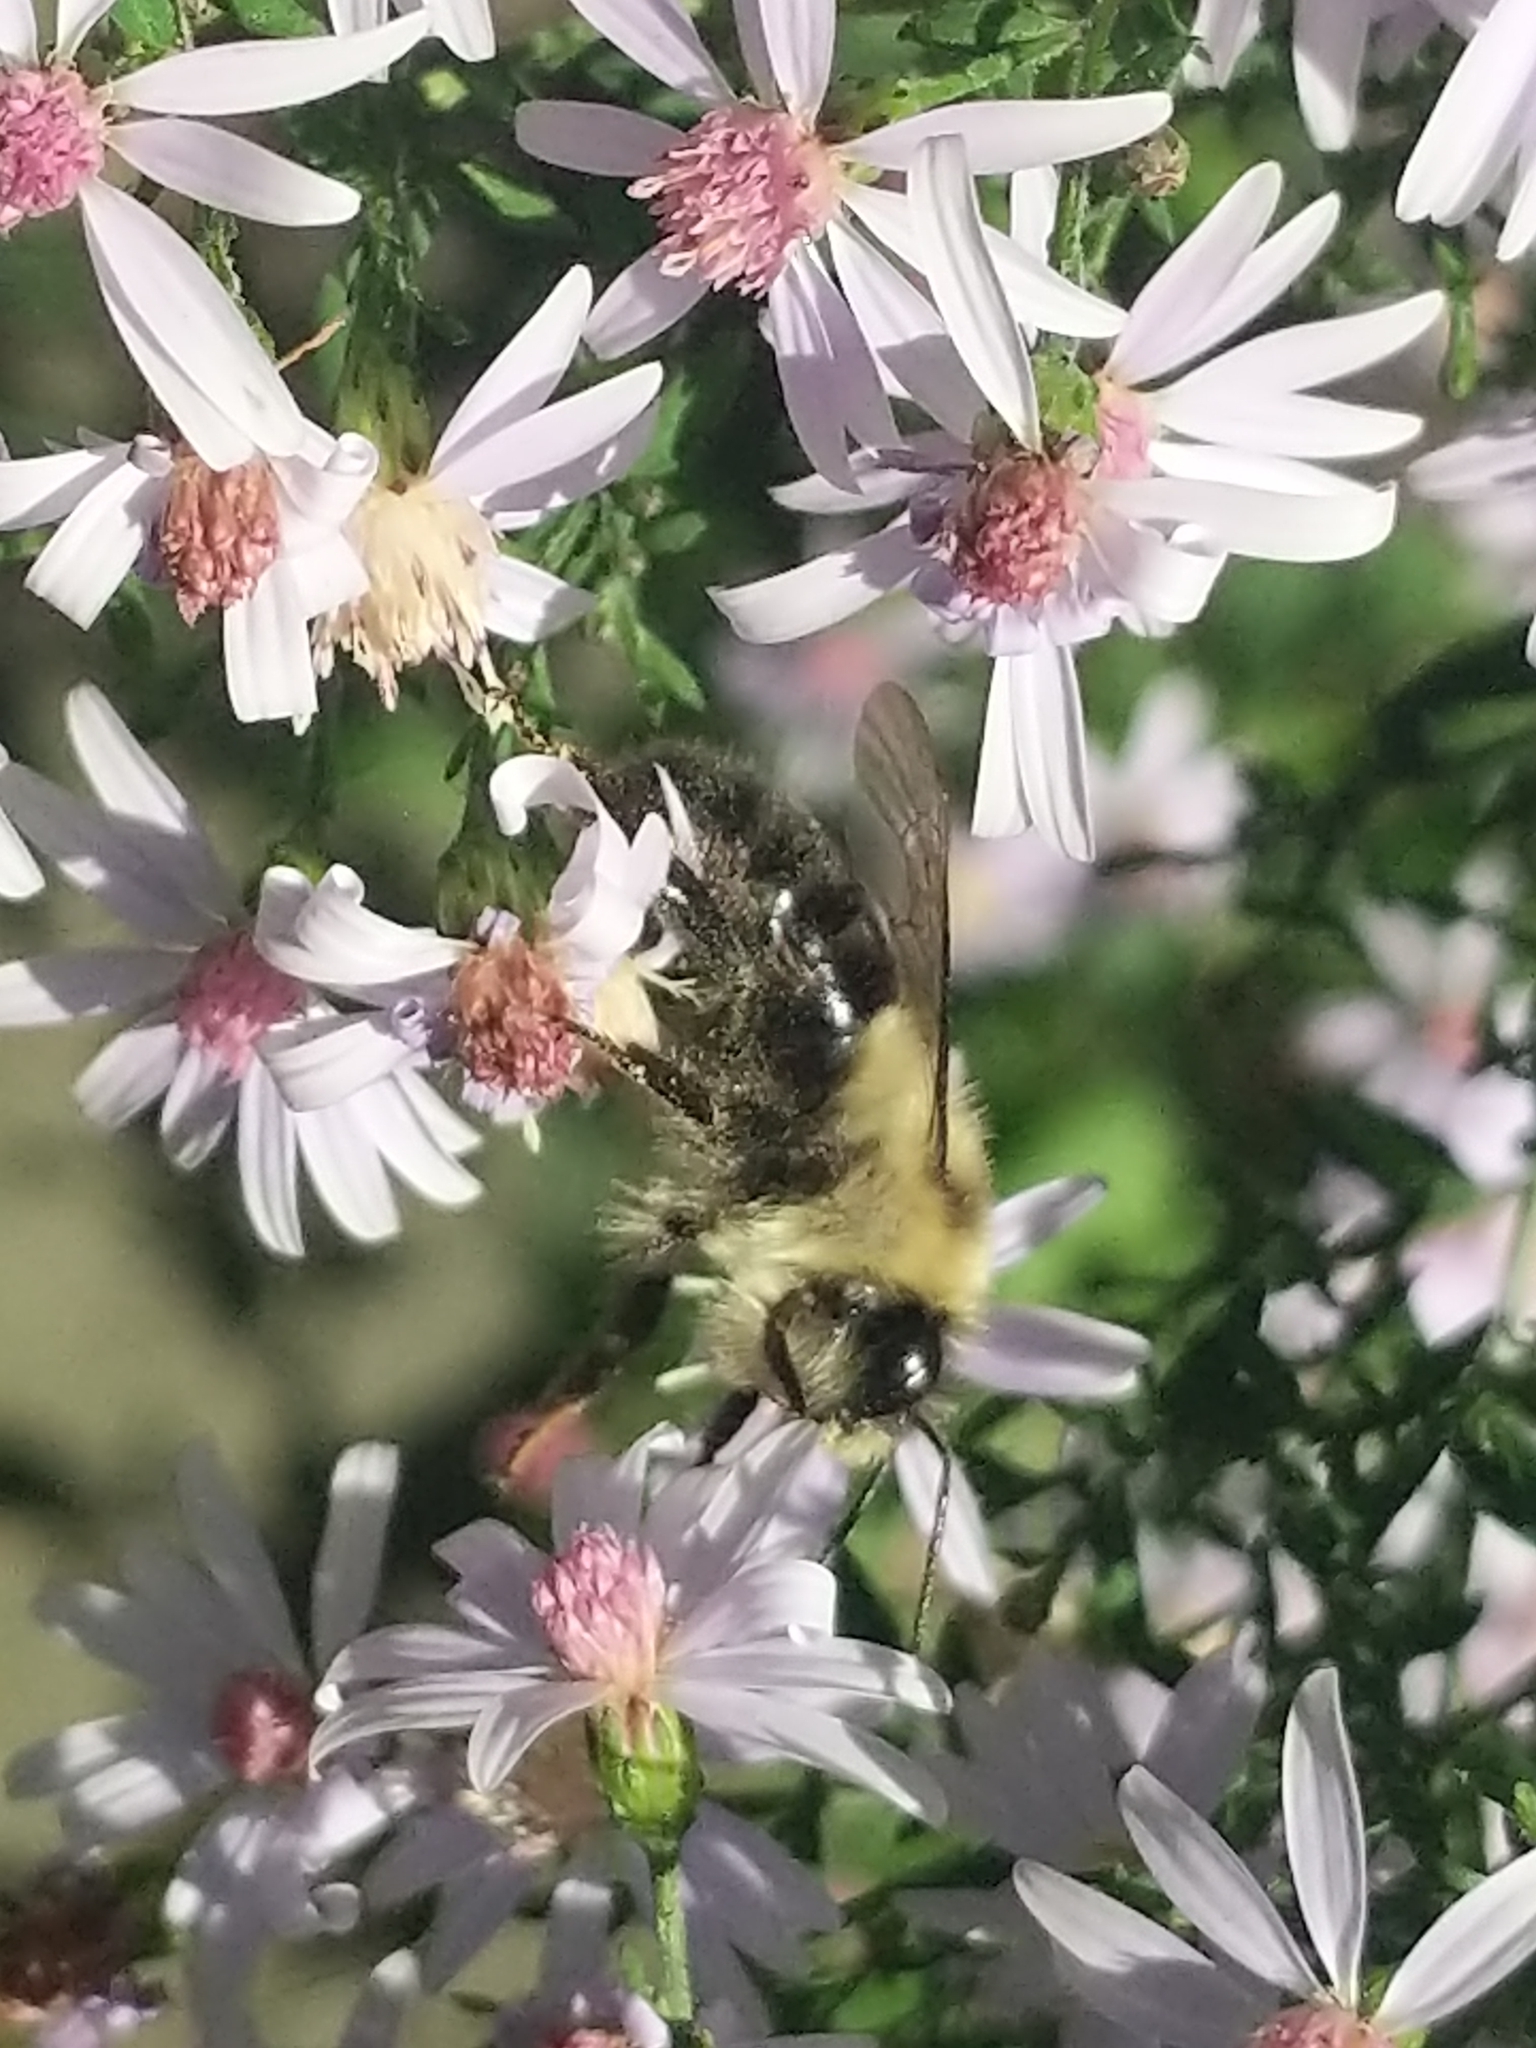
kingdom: Animalia
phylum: Arthropoda
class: Insecta
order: Hymenoptera
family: Apidae
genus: Bombus
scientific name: Bombus impatiens
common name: Common eastern bumble bee
